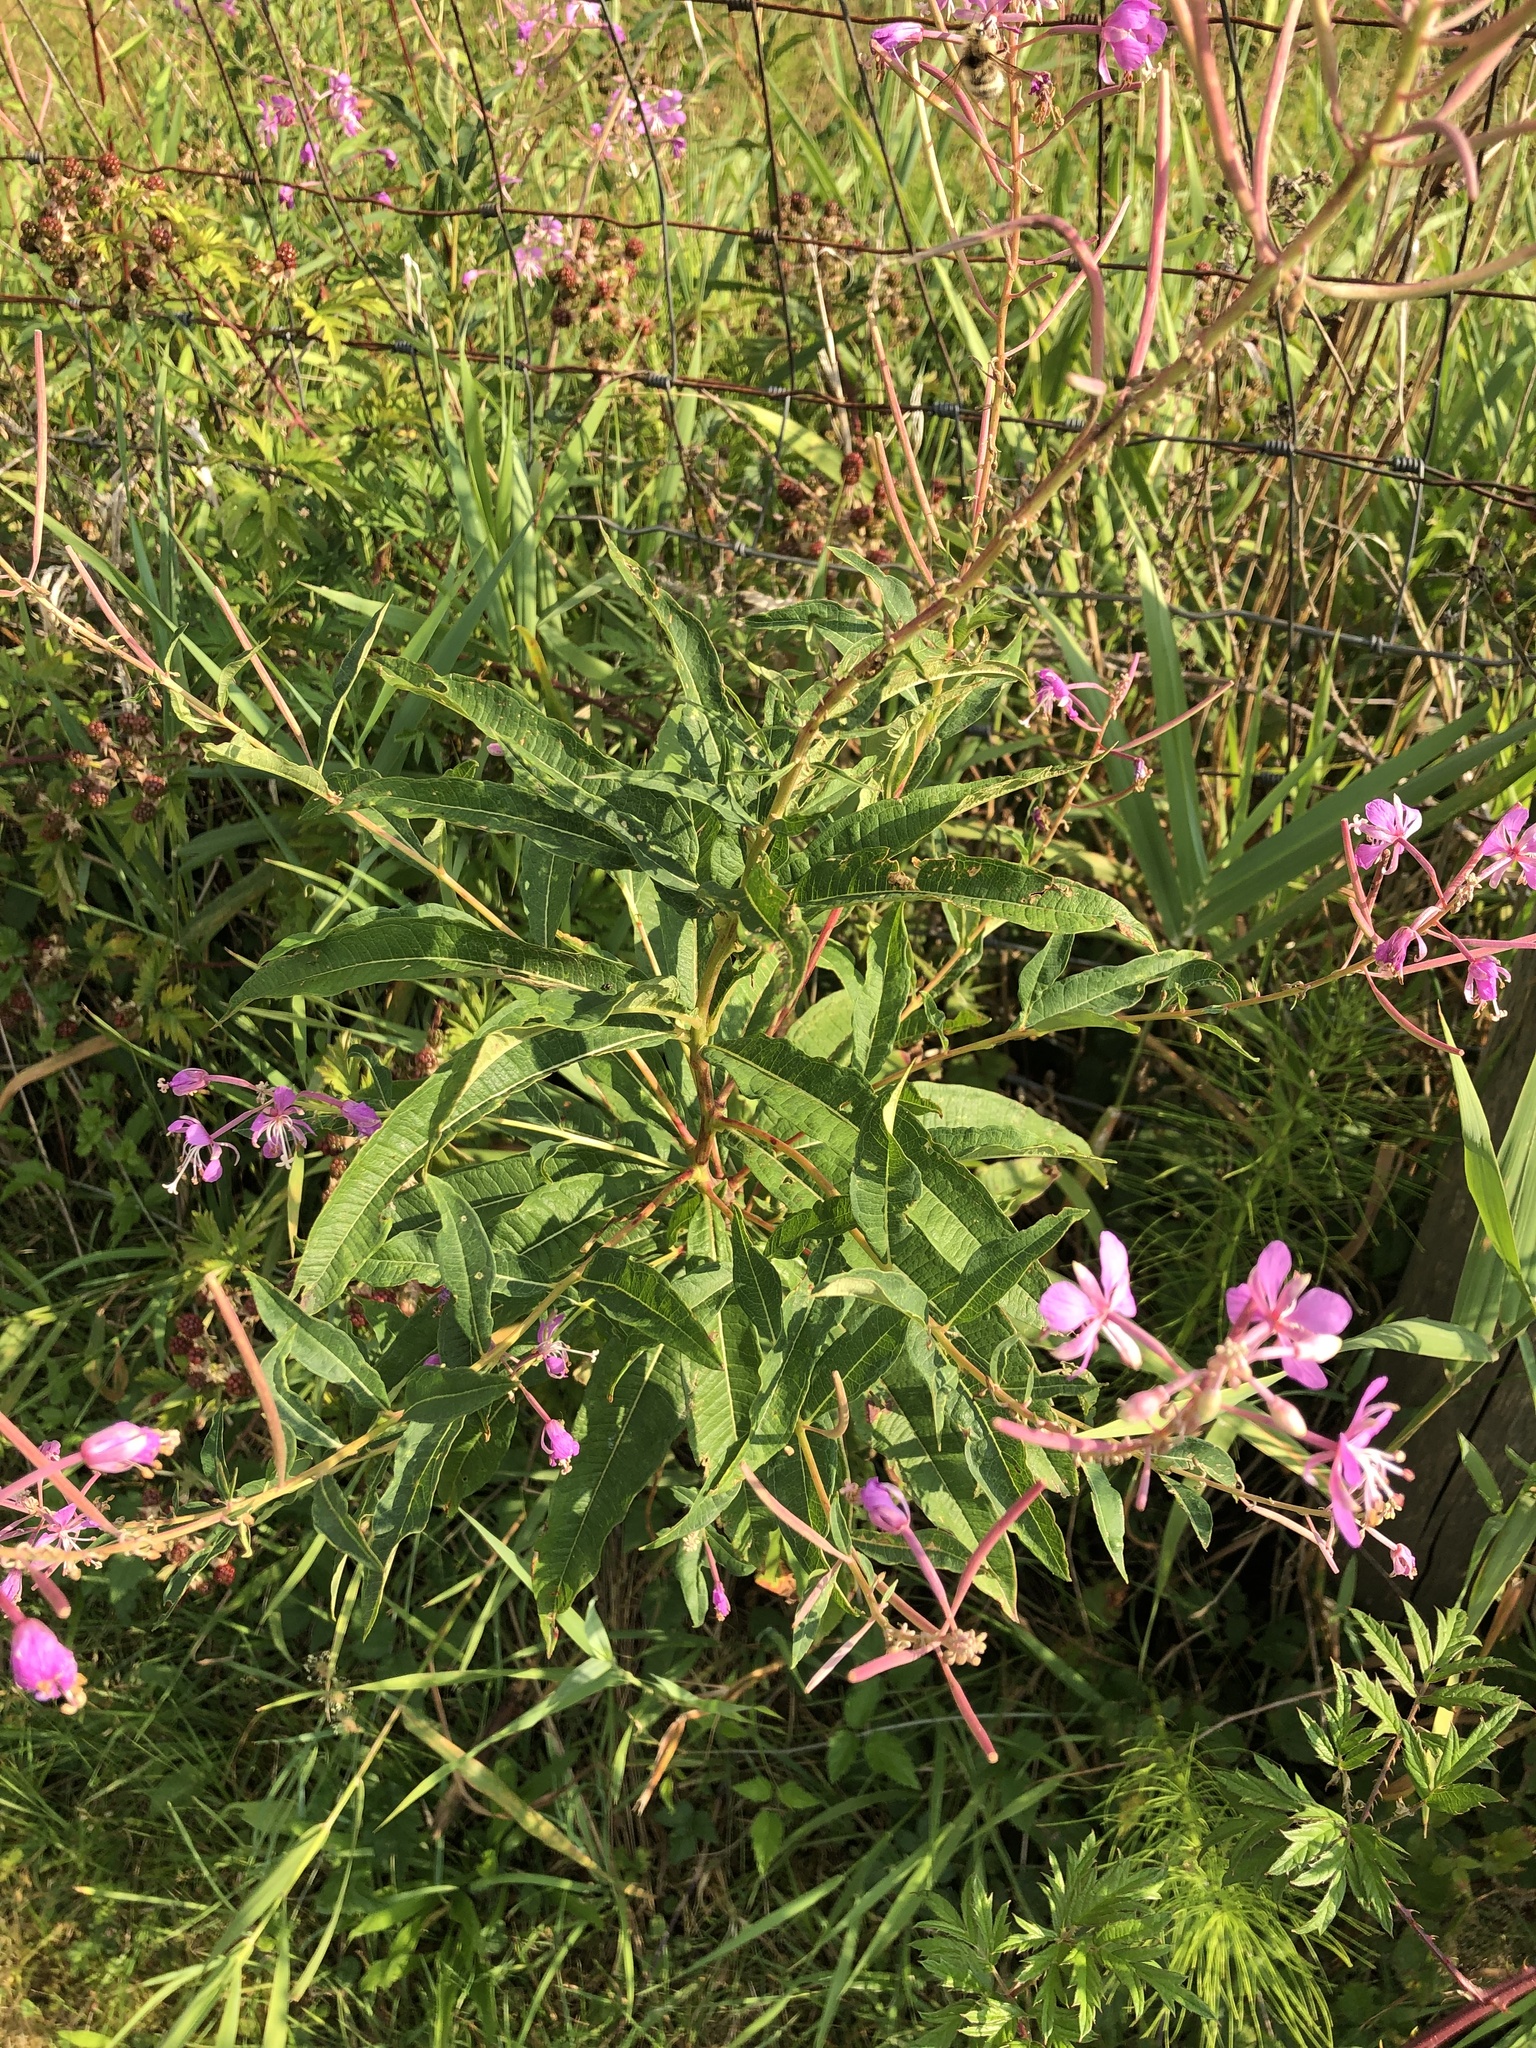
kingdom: Plantae
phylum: Tracheophyta
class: Magnoliopsida
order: Myrtales
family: Onagraceae
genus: Chamaenerion
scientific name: Chamaenerion angustifolium
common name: Fireweed
